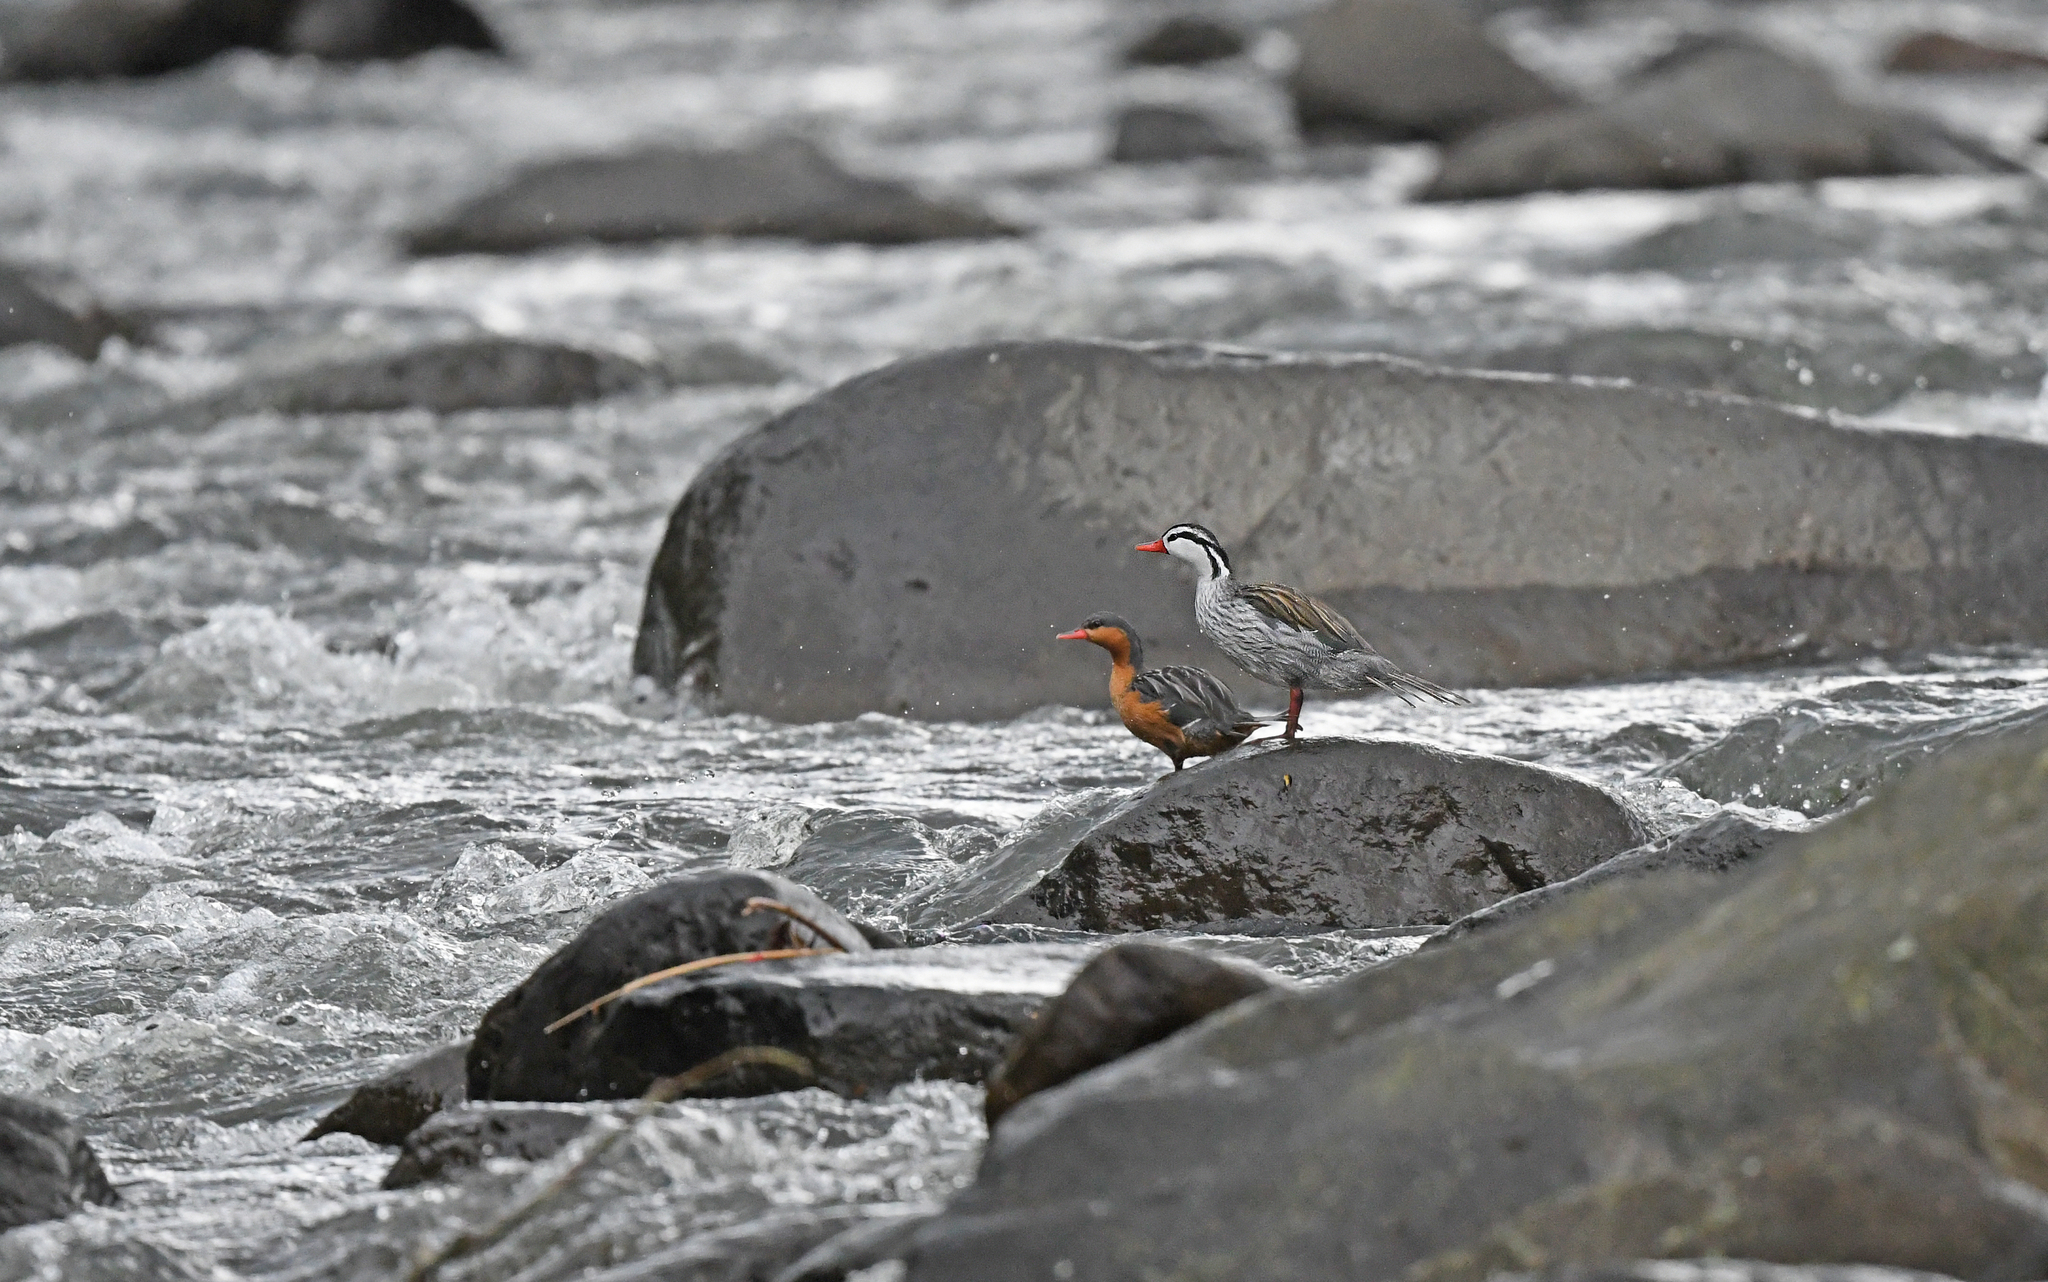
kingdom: Animalia
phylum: Chordata
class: Aves
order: Anseriformes
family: Anatidae
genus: Merganetta
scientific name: Merganetta armata
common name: Torrent duck
